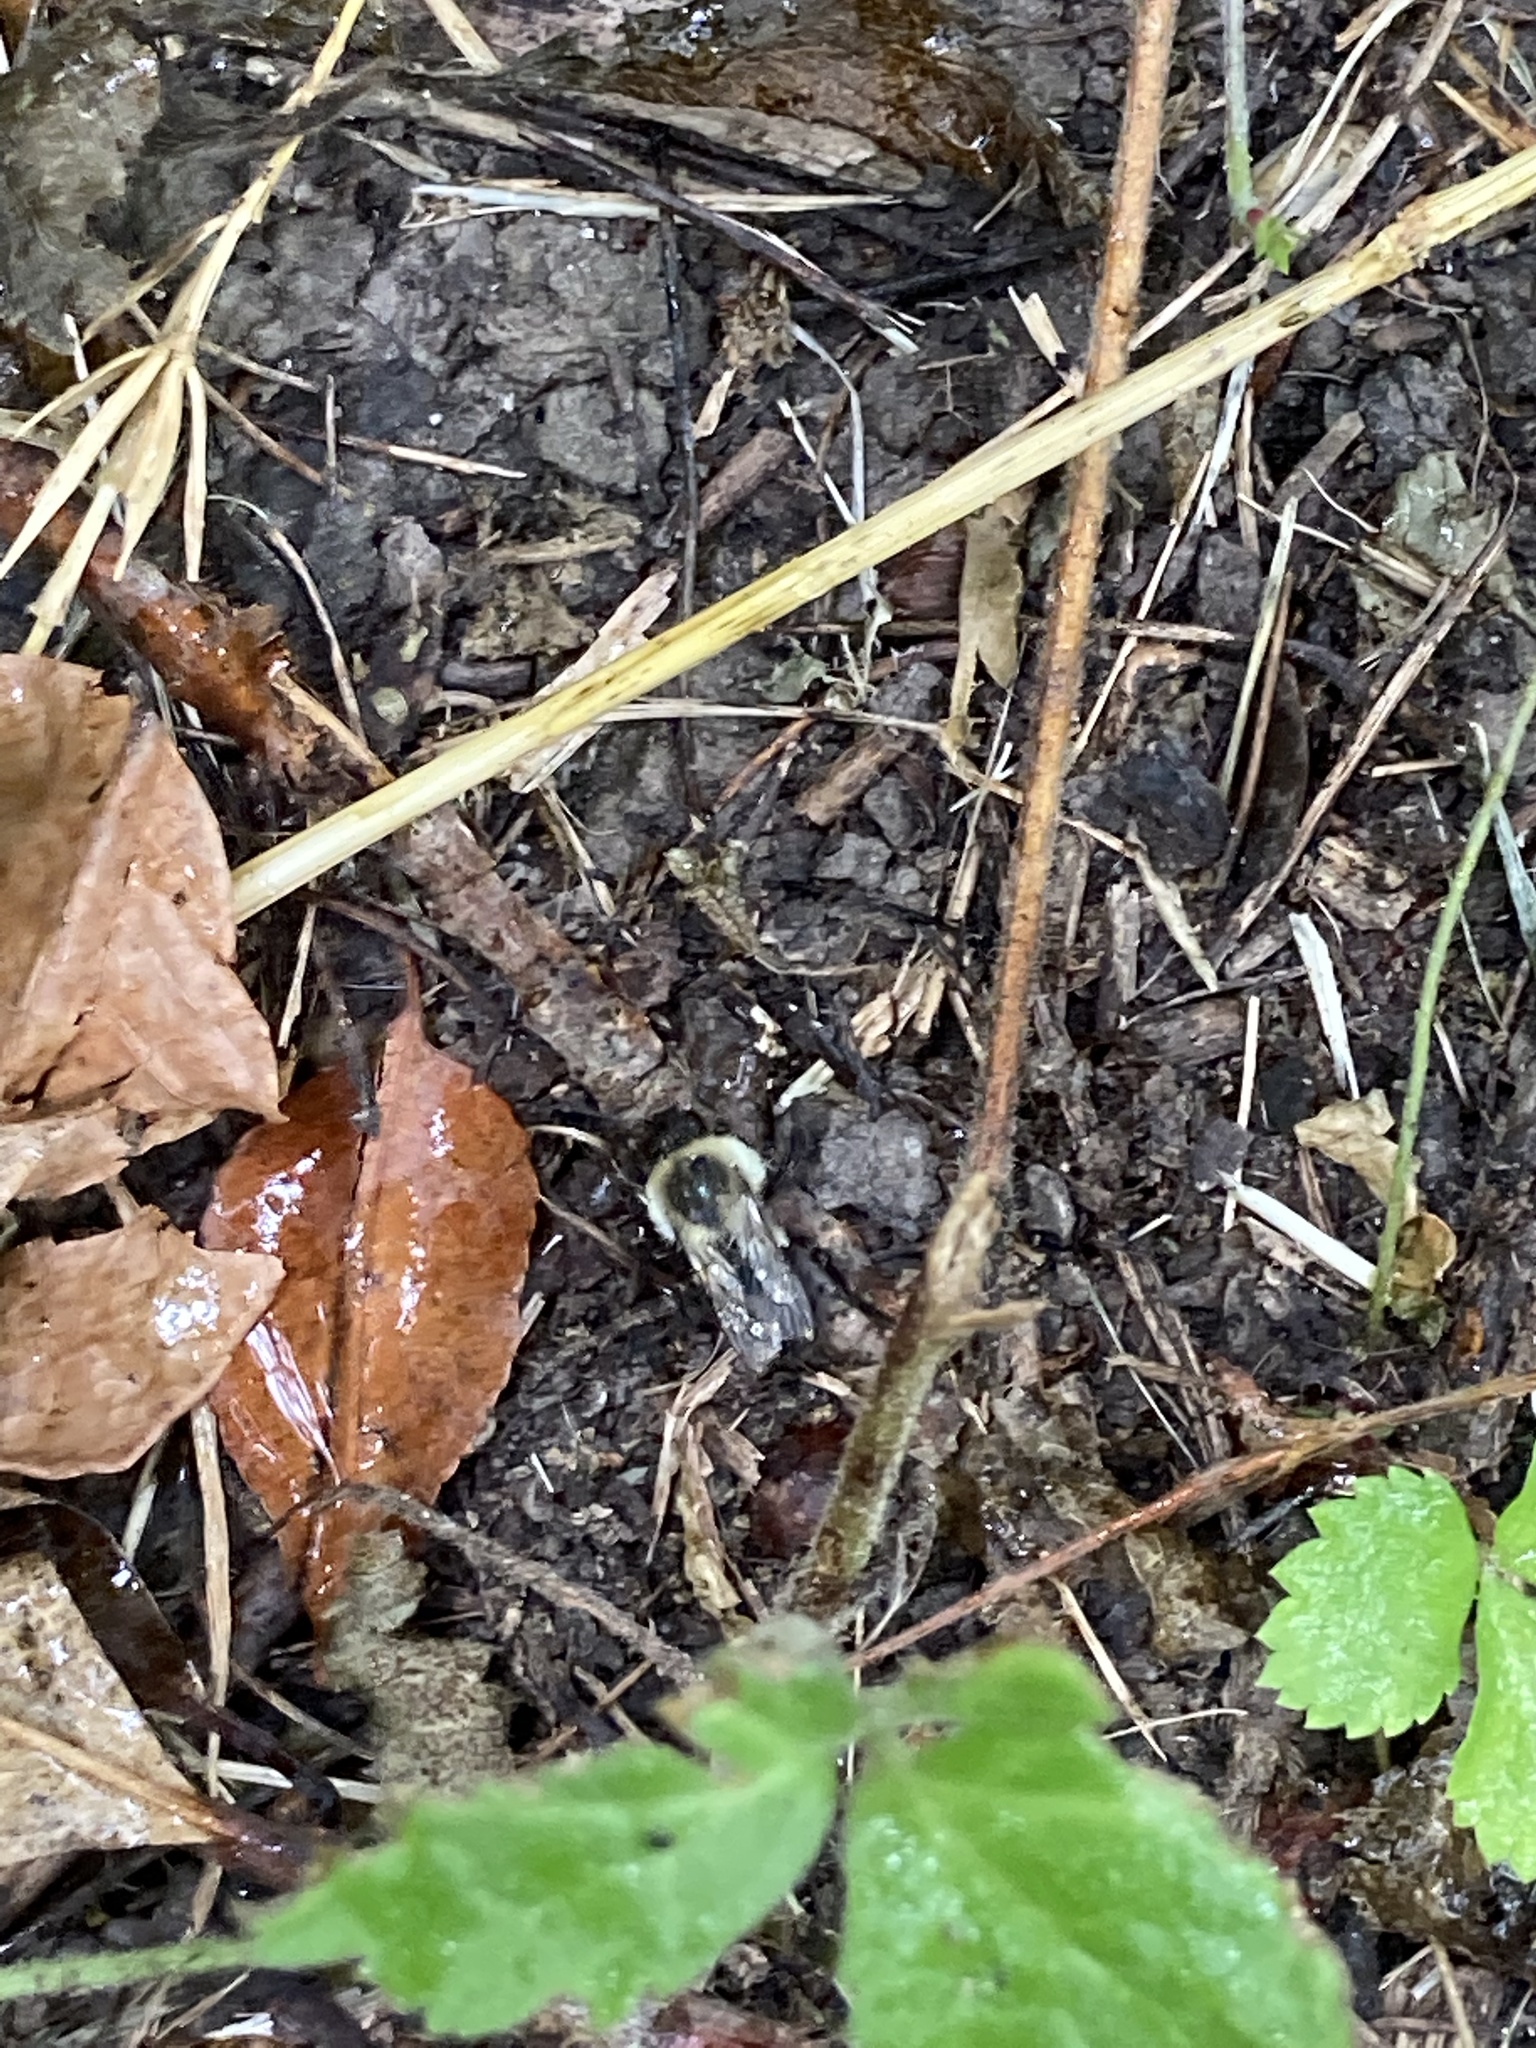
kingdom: Animalia
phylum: Arthropoda
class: Insecta
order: Hymenoptera
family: Apidae
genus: Bombus
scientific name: Bombus impatiens
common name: Common eastern bumble bee
